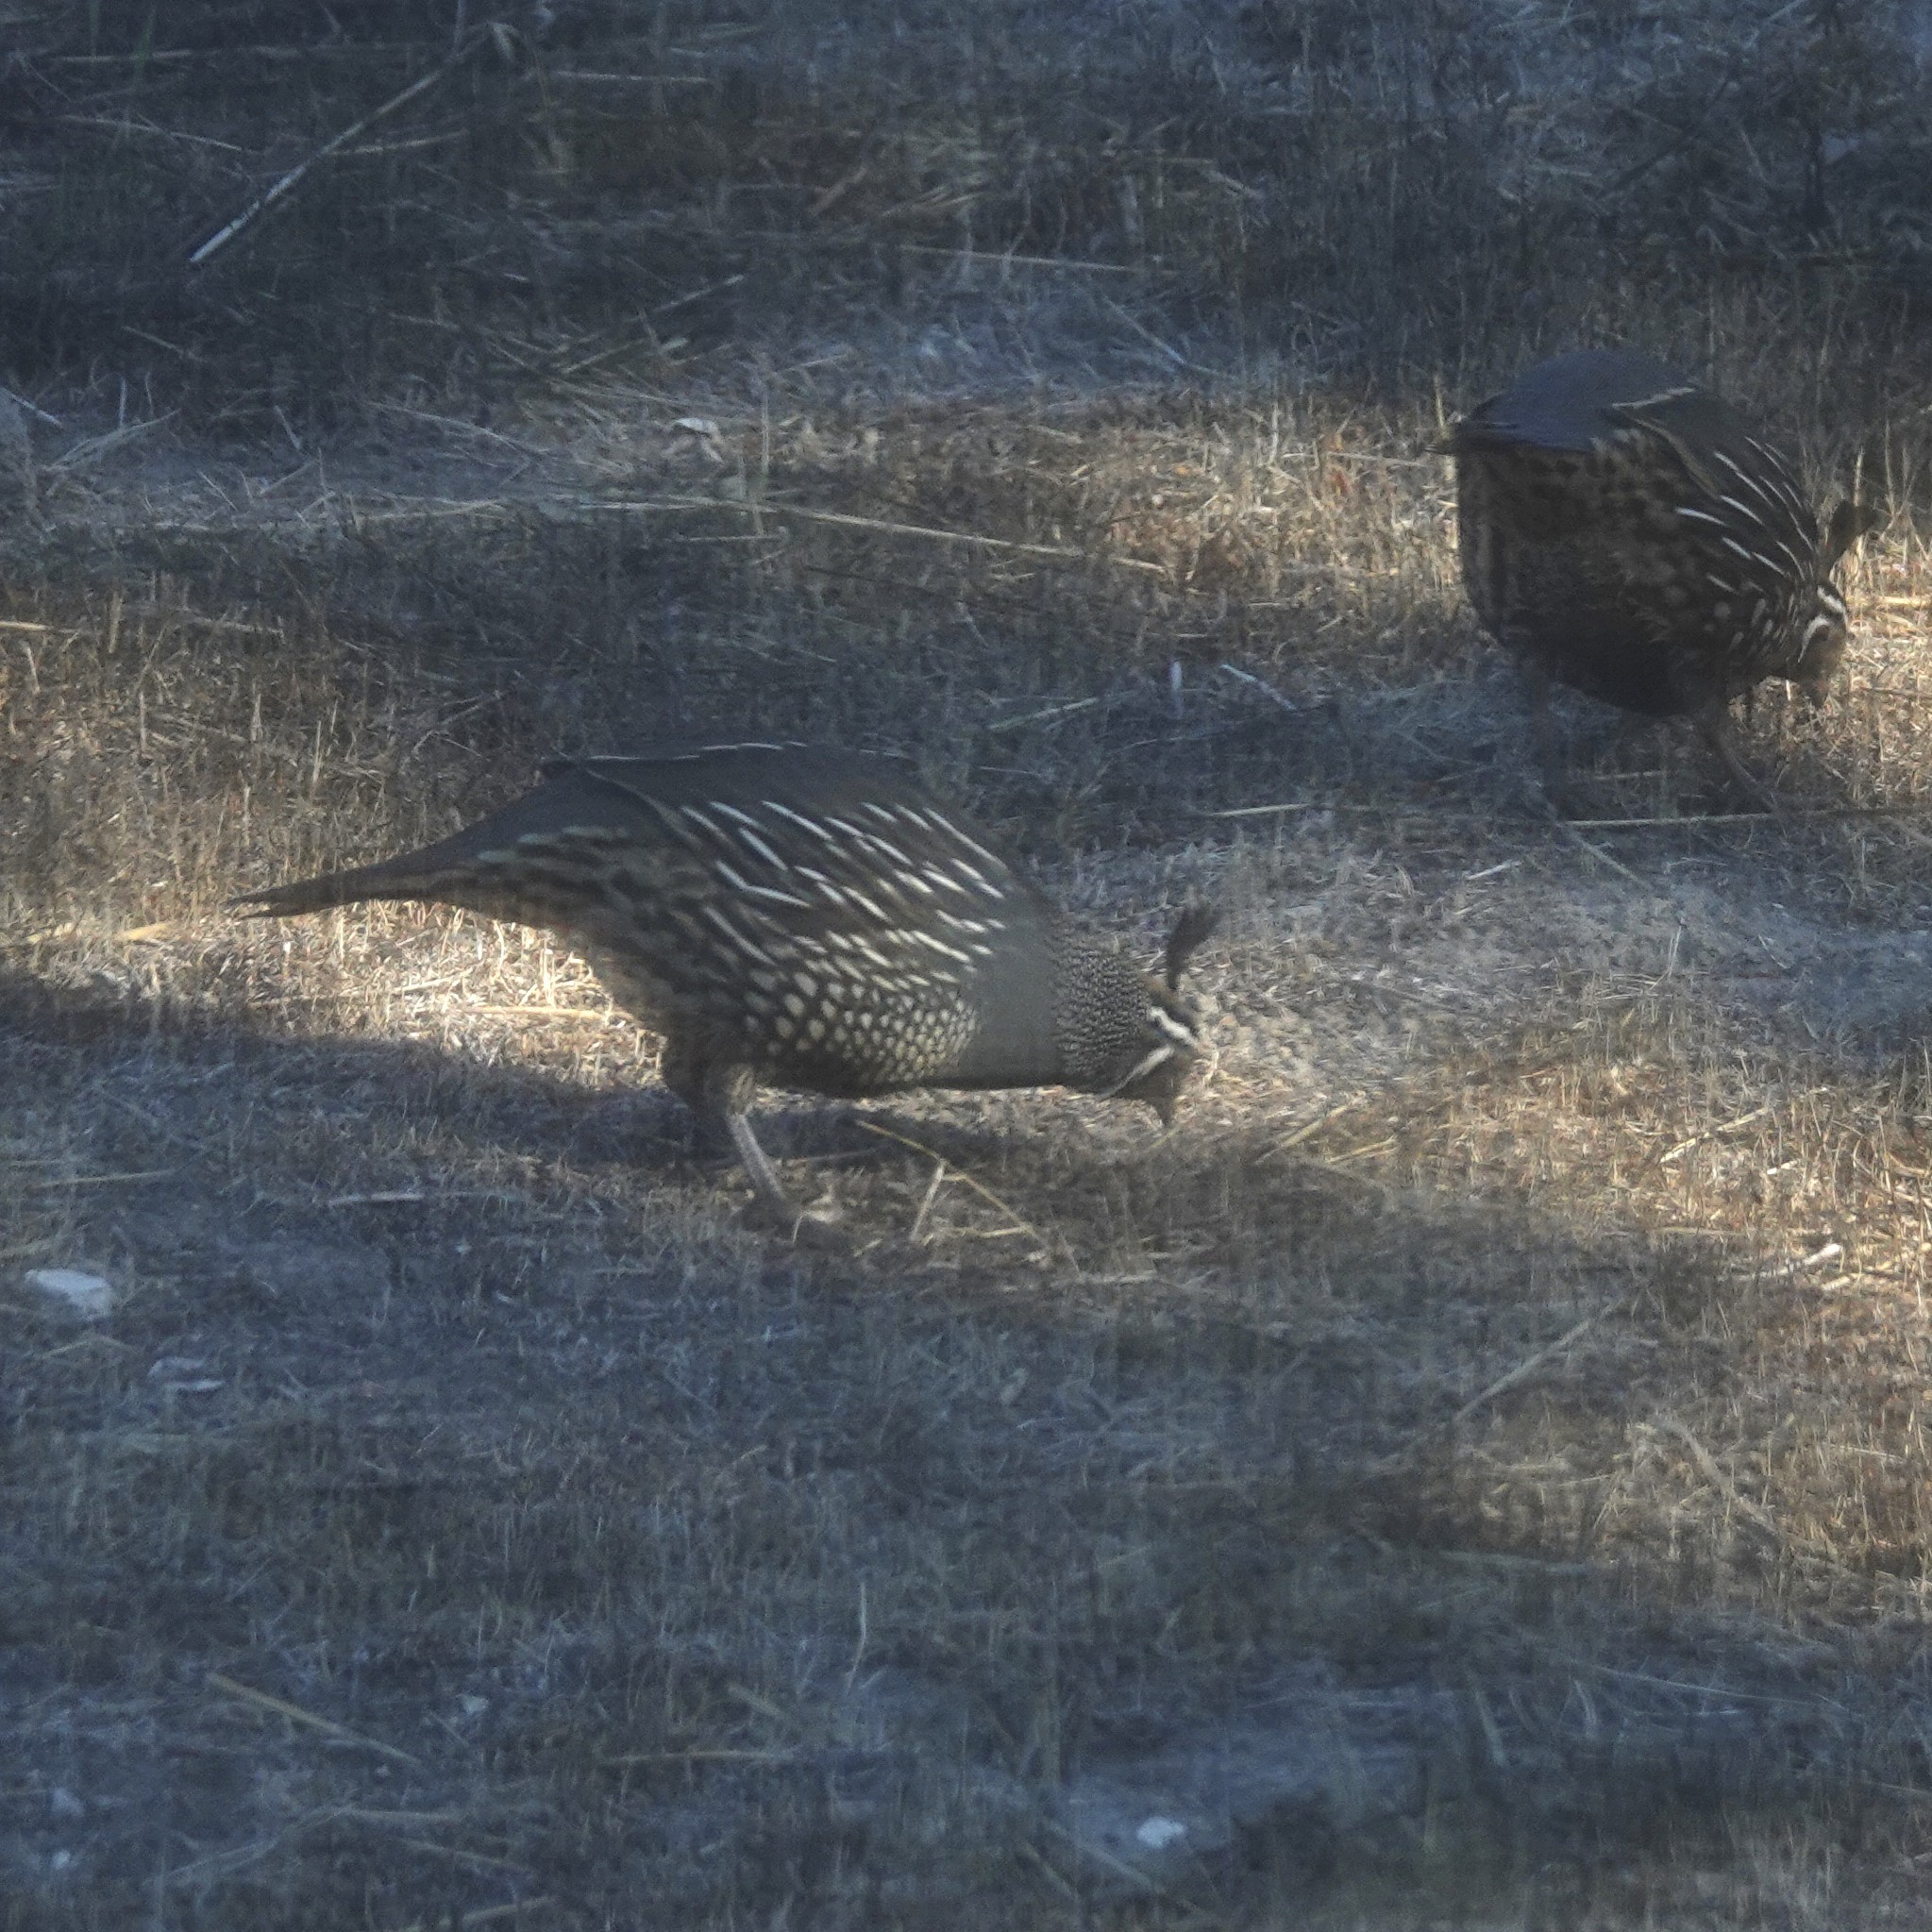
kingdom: Animalia
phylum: Chordata
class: Aves
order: Galliformes
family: Odontophoridae
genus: Callipepla
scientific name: Callipepla californica
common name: California quail
